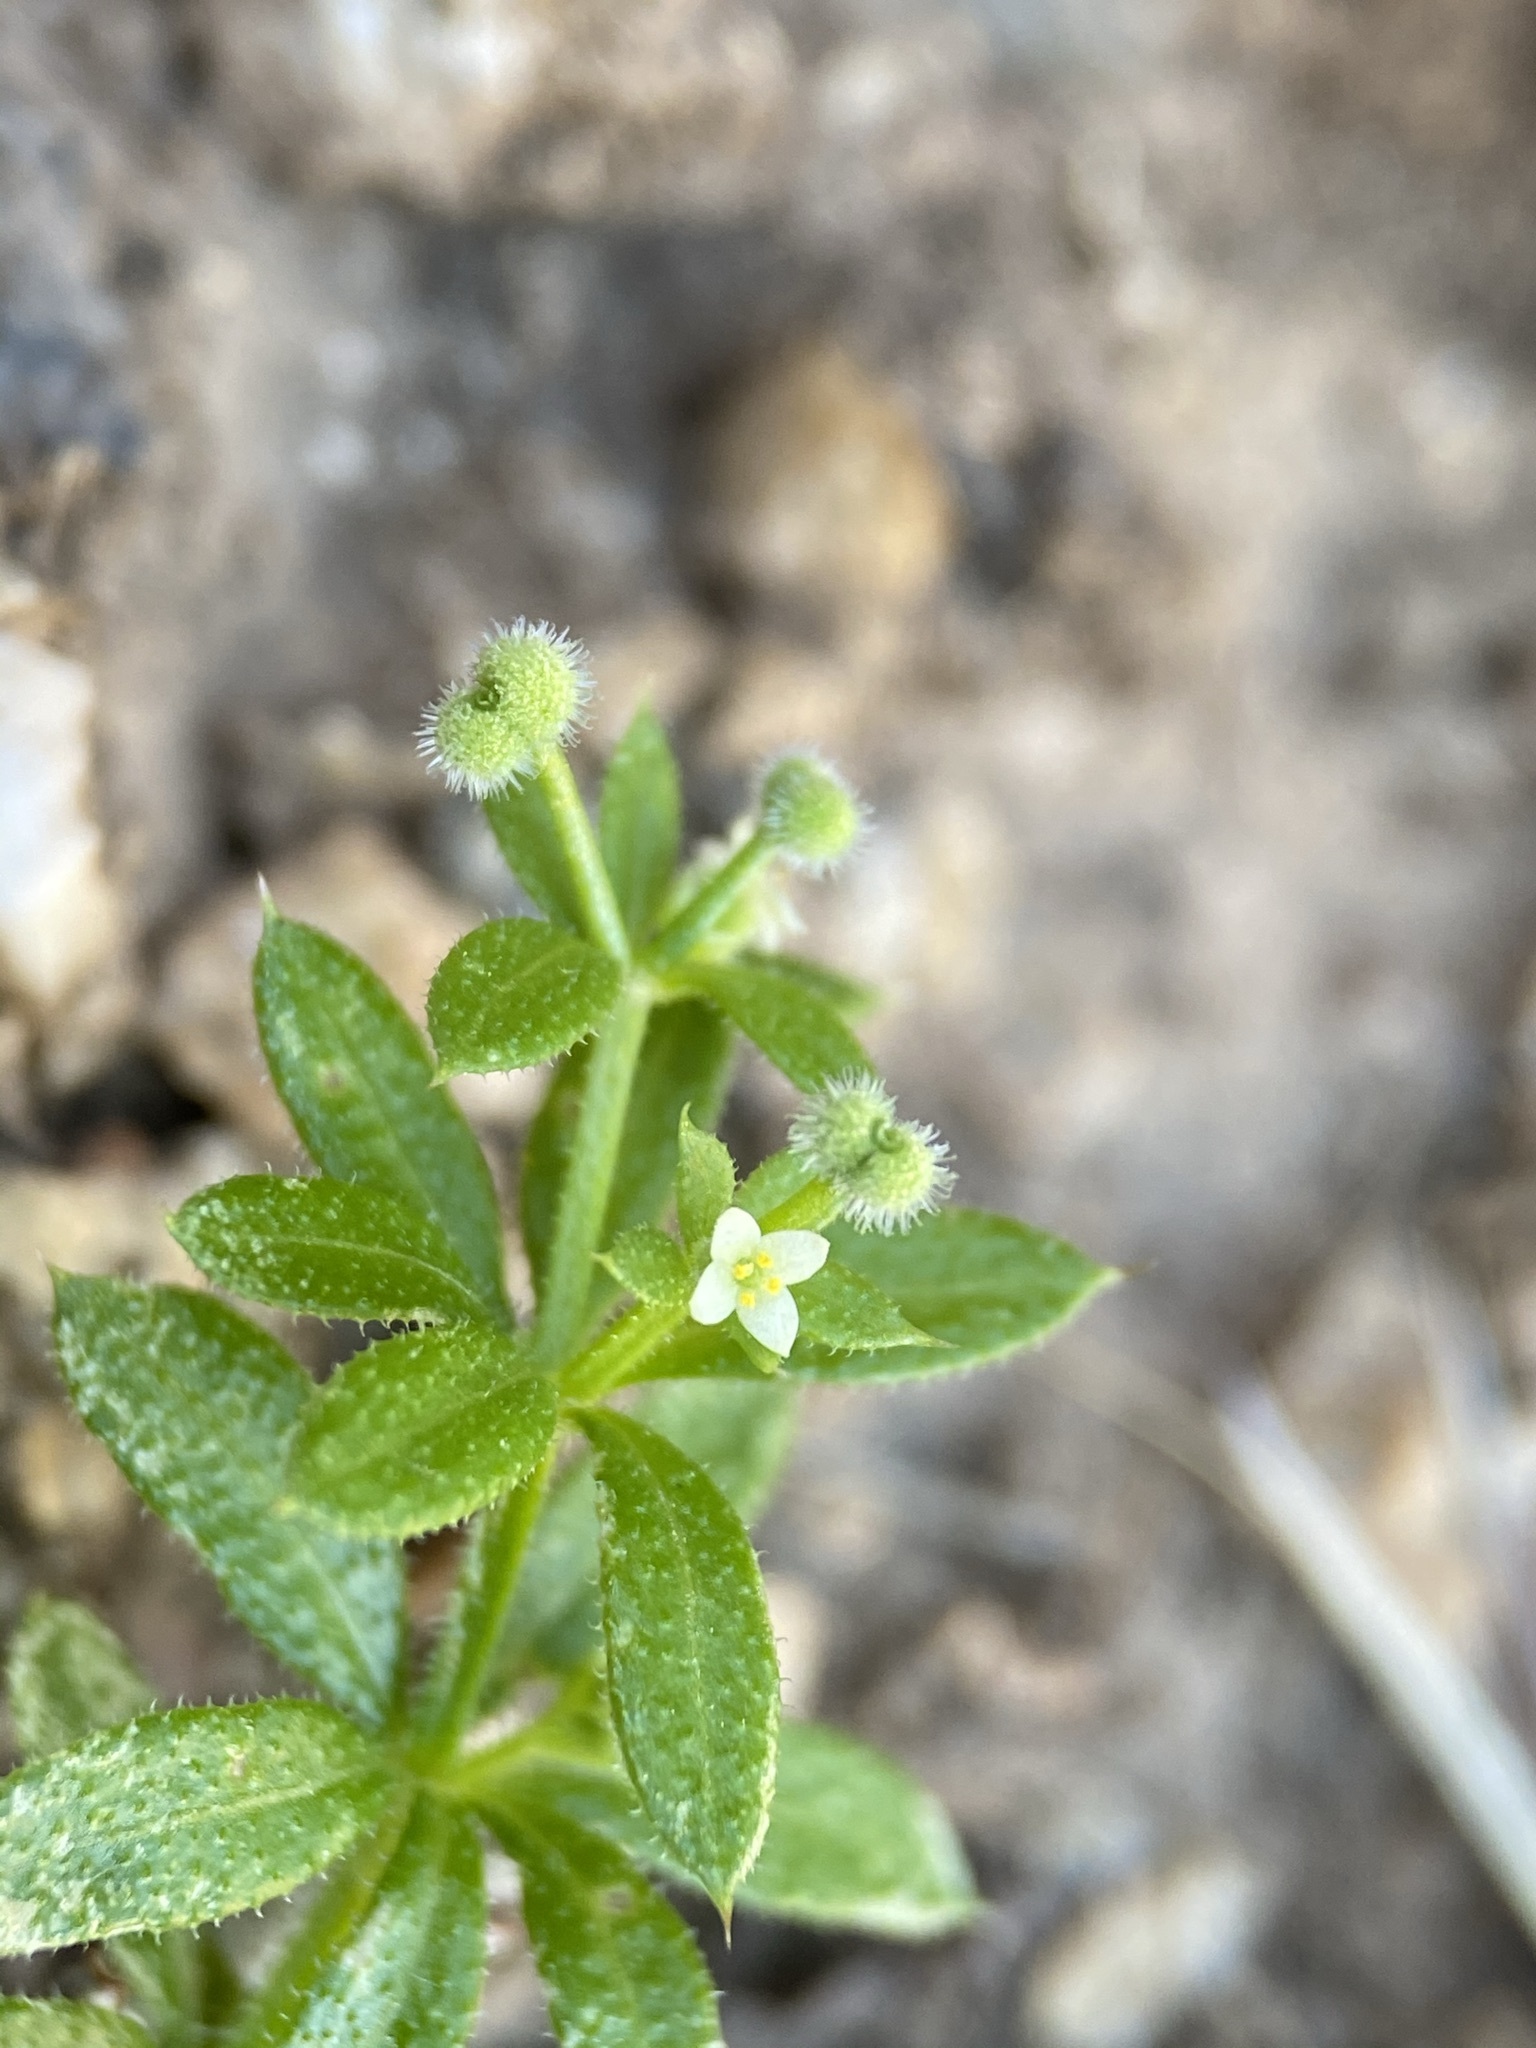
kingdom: Plantae
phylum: Tracheophyta
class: Magnoliopsida
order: Gentianales
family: Rubiaceae
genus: Galium
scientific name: Galium aparine
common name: Cleavers
